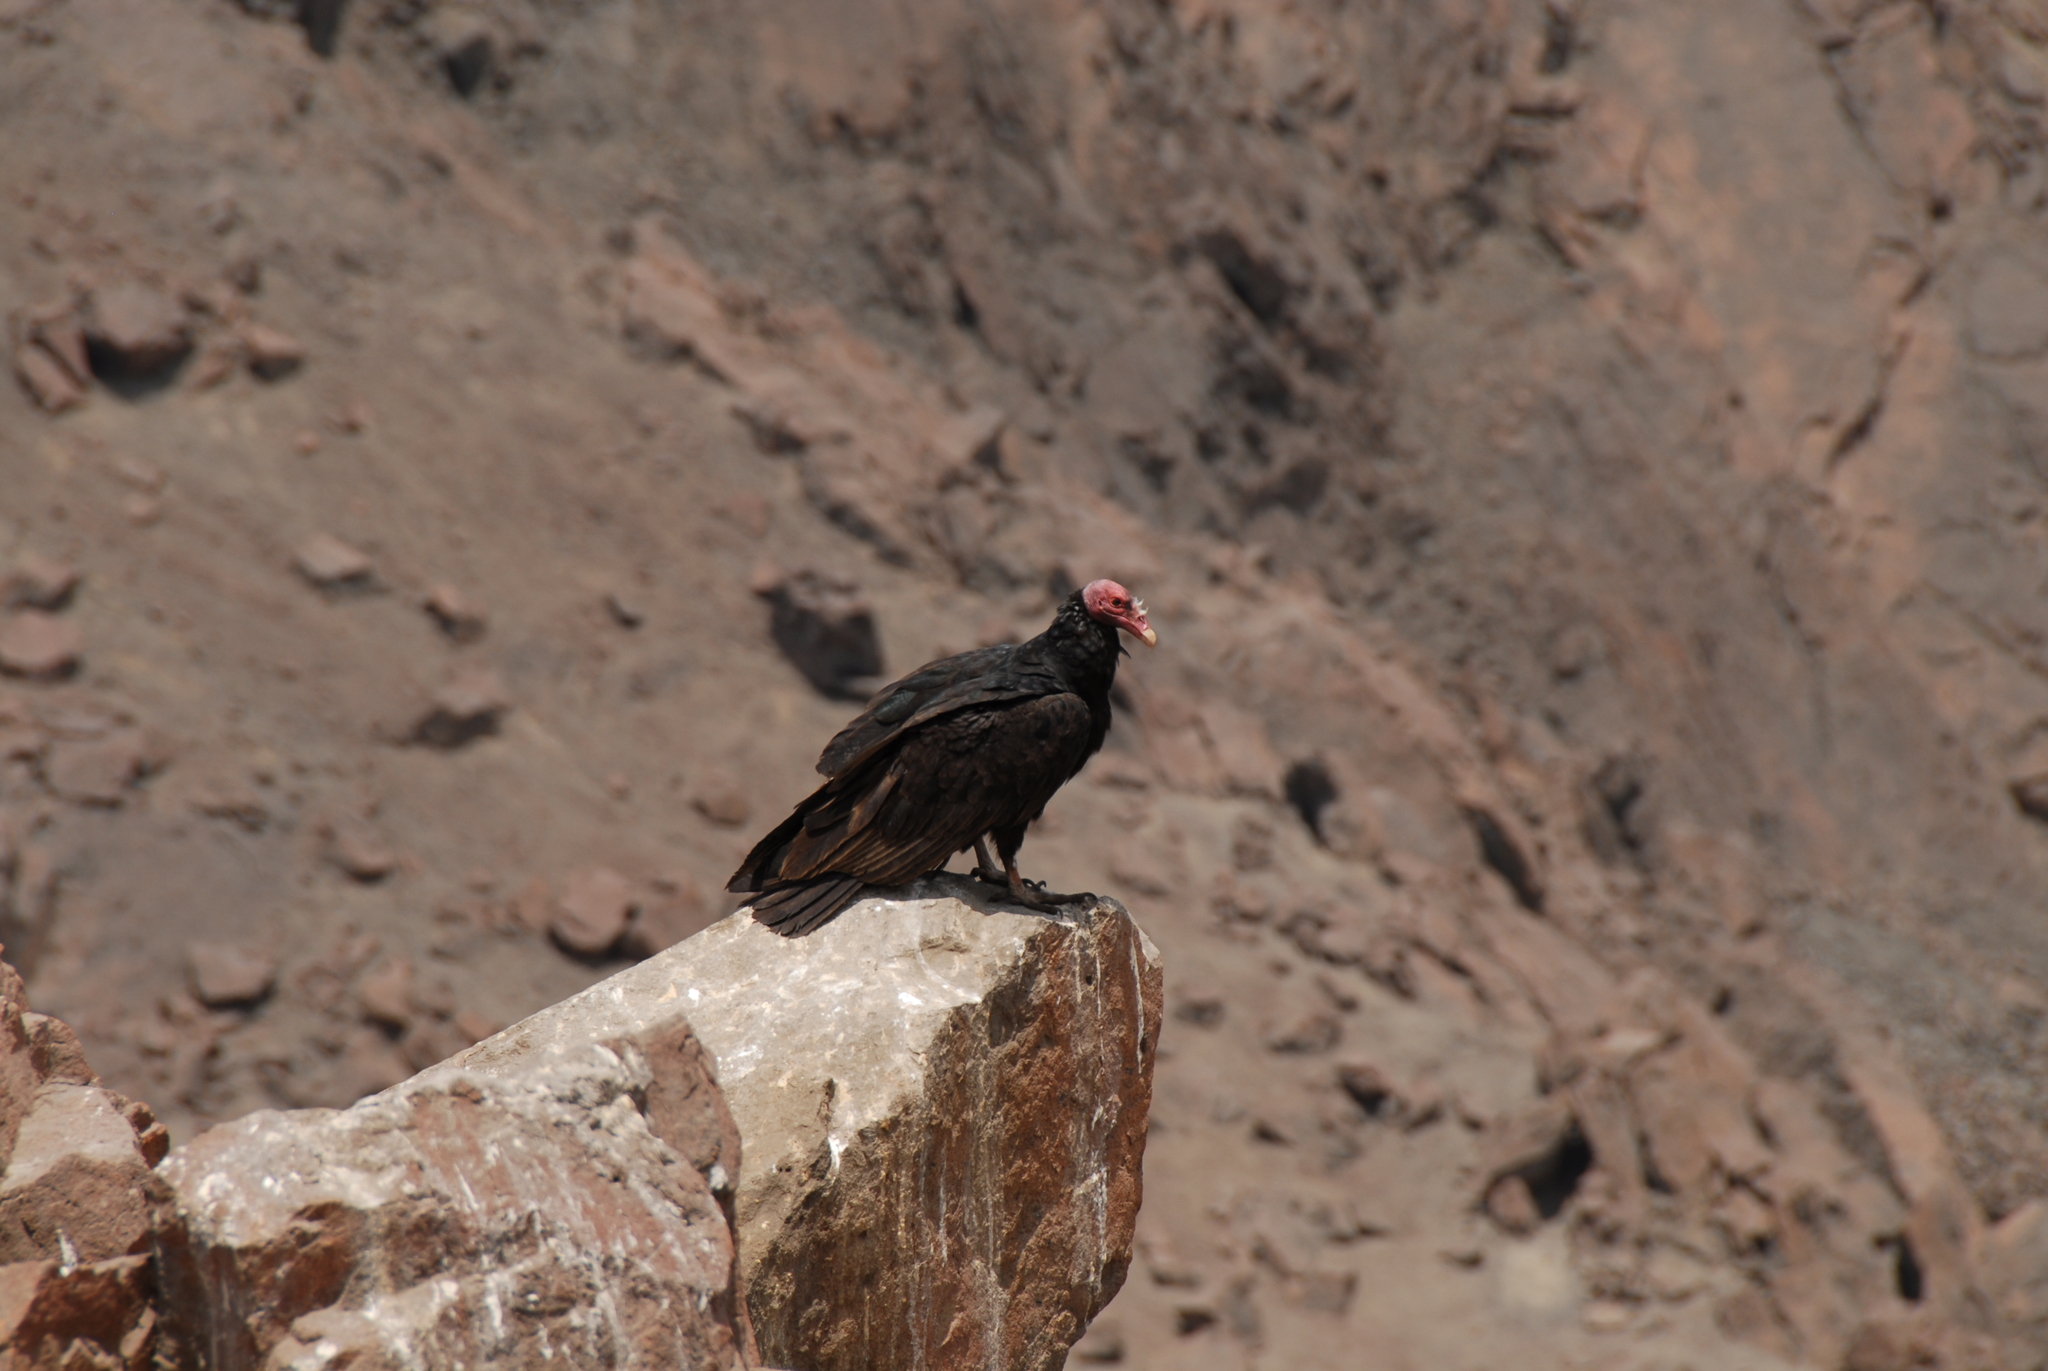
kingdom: Animalia
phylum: Chordata
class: Aves
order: Accipitriformes
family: Cathartidae
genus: Cathartes
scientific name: Cathartes aura
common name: Turkey vulture
